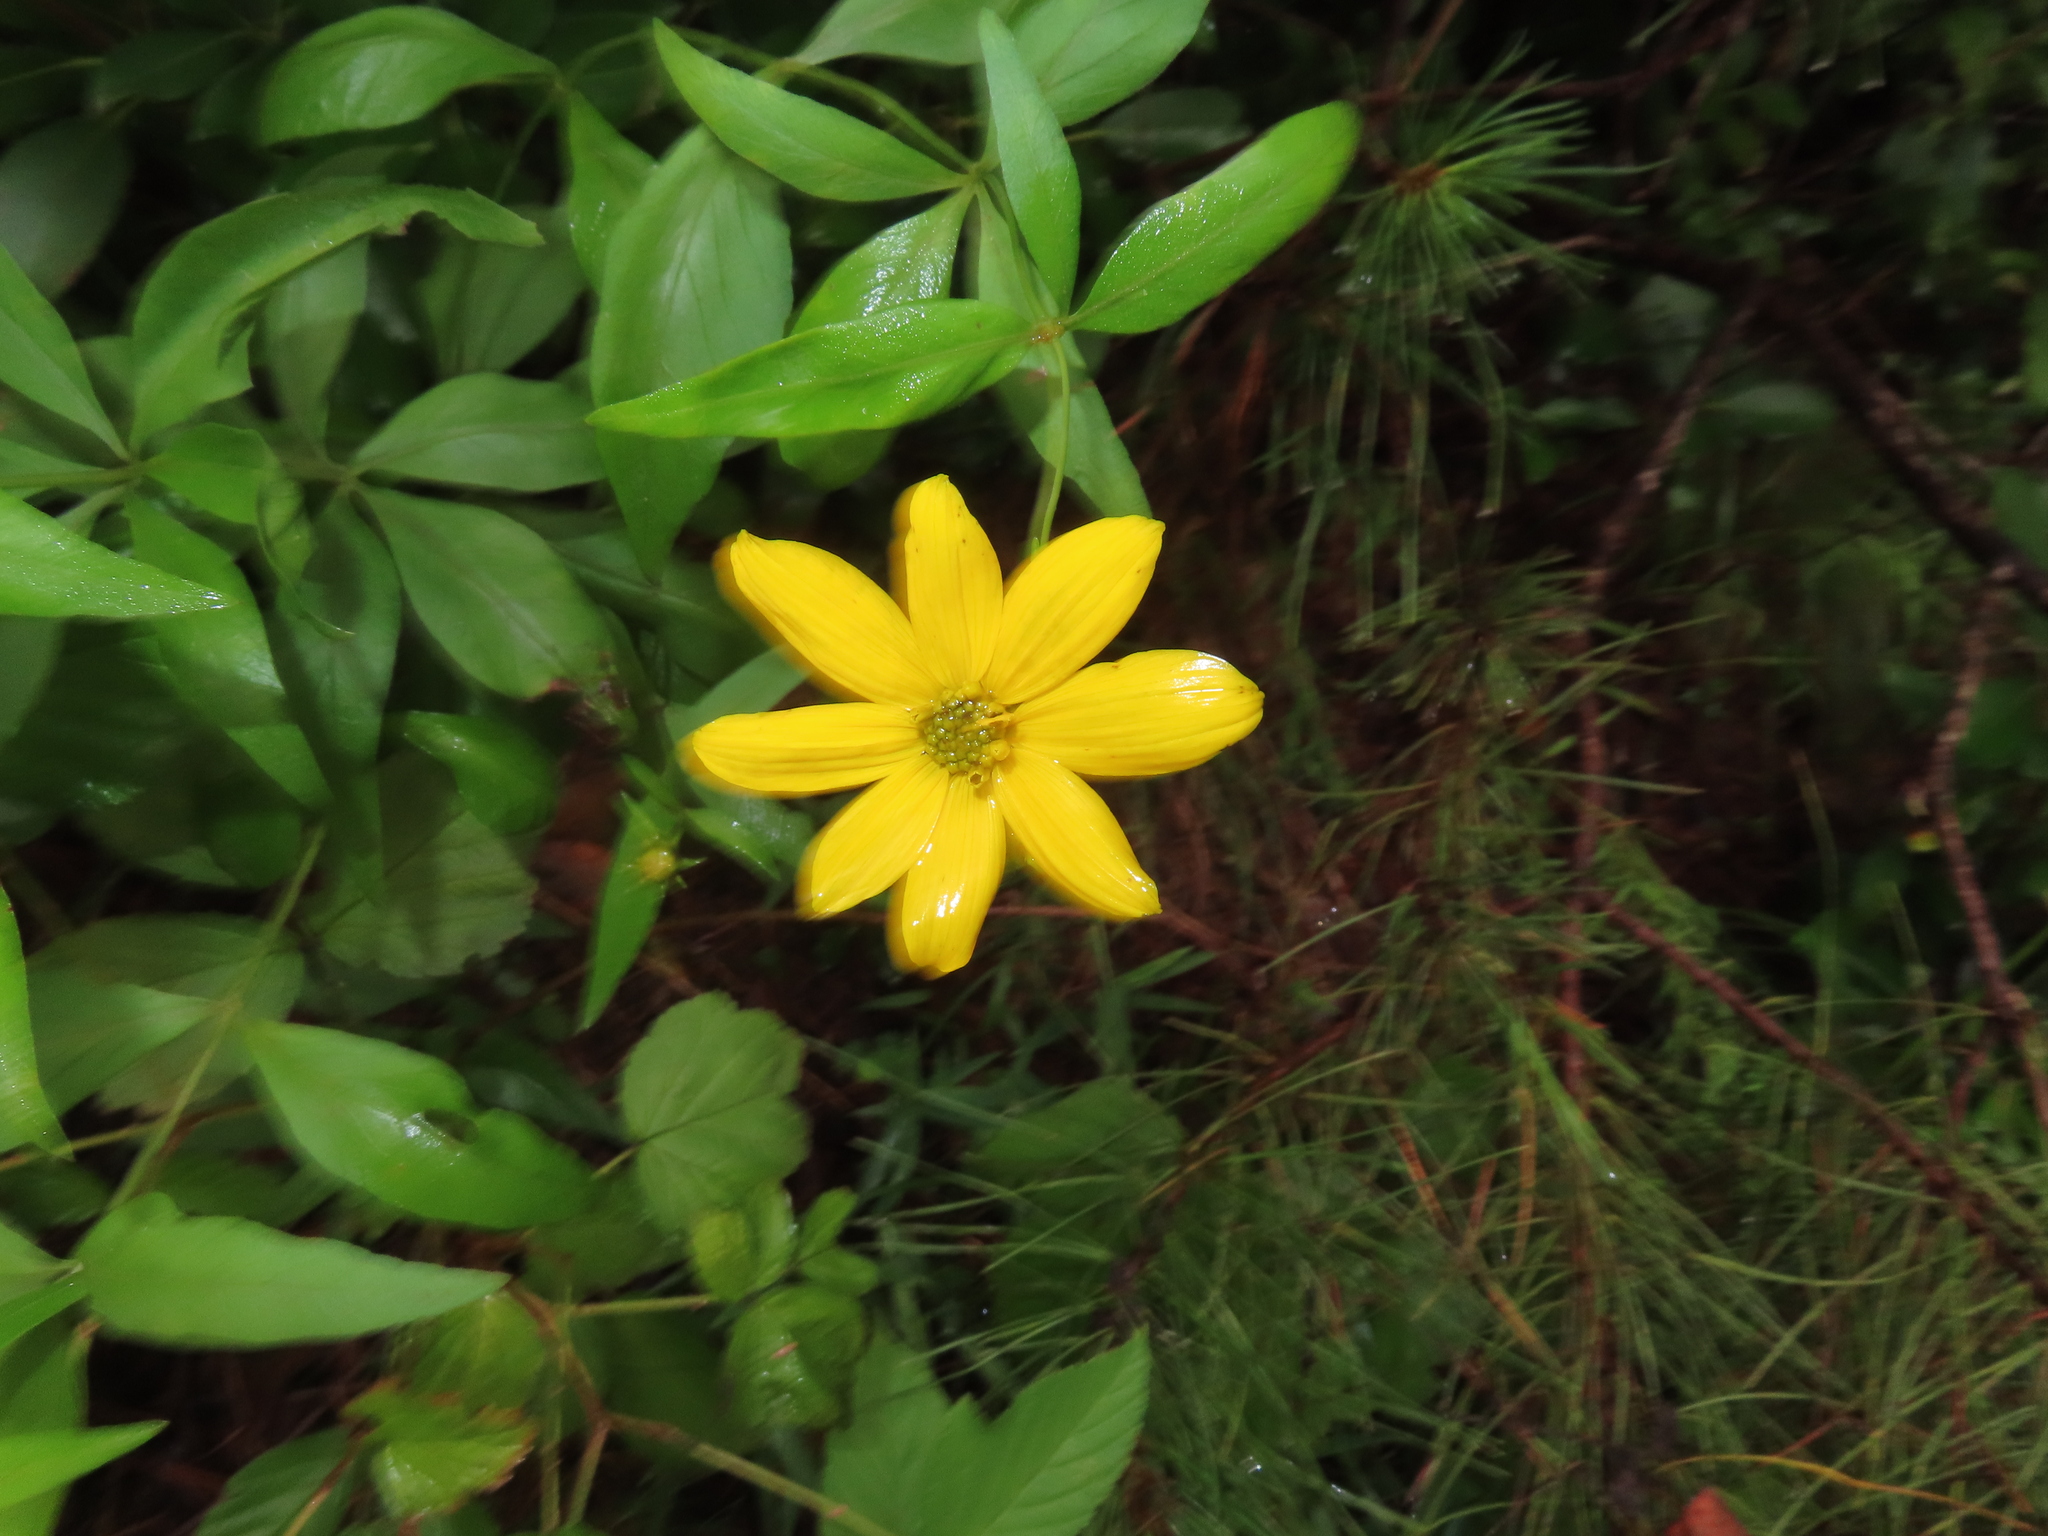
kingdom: Plantae
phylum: Tracheophyta
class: Magnoliopsida
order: Asterales
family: Asteraceae
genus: Coreopsis
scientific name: Coreopsis major
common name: Forest tickseed
